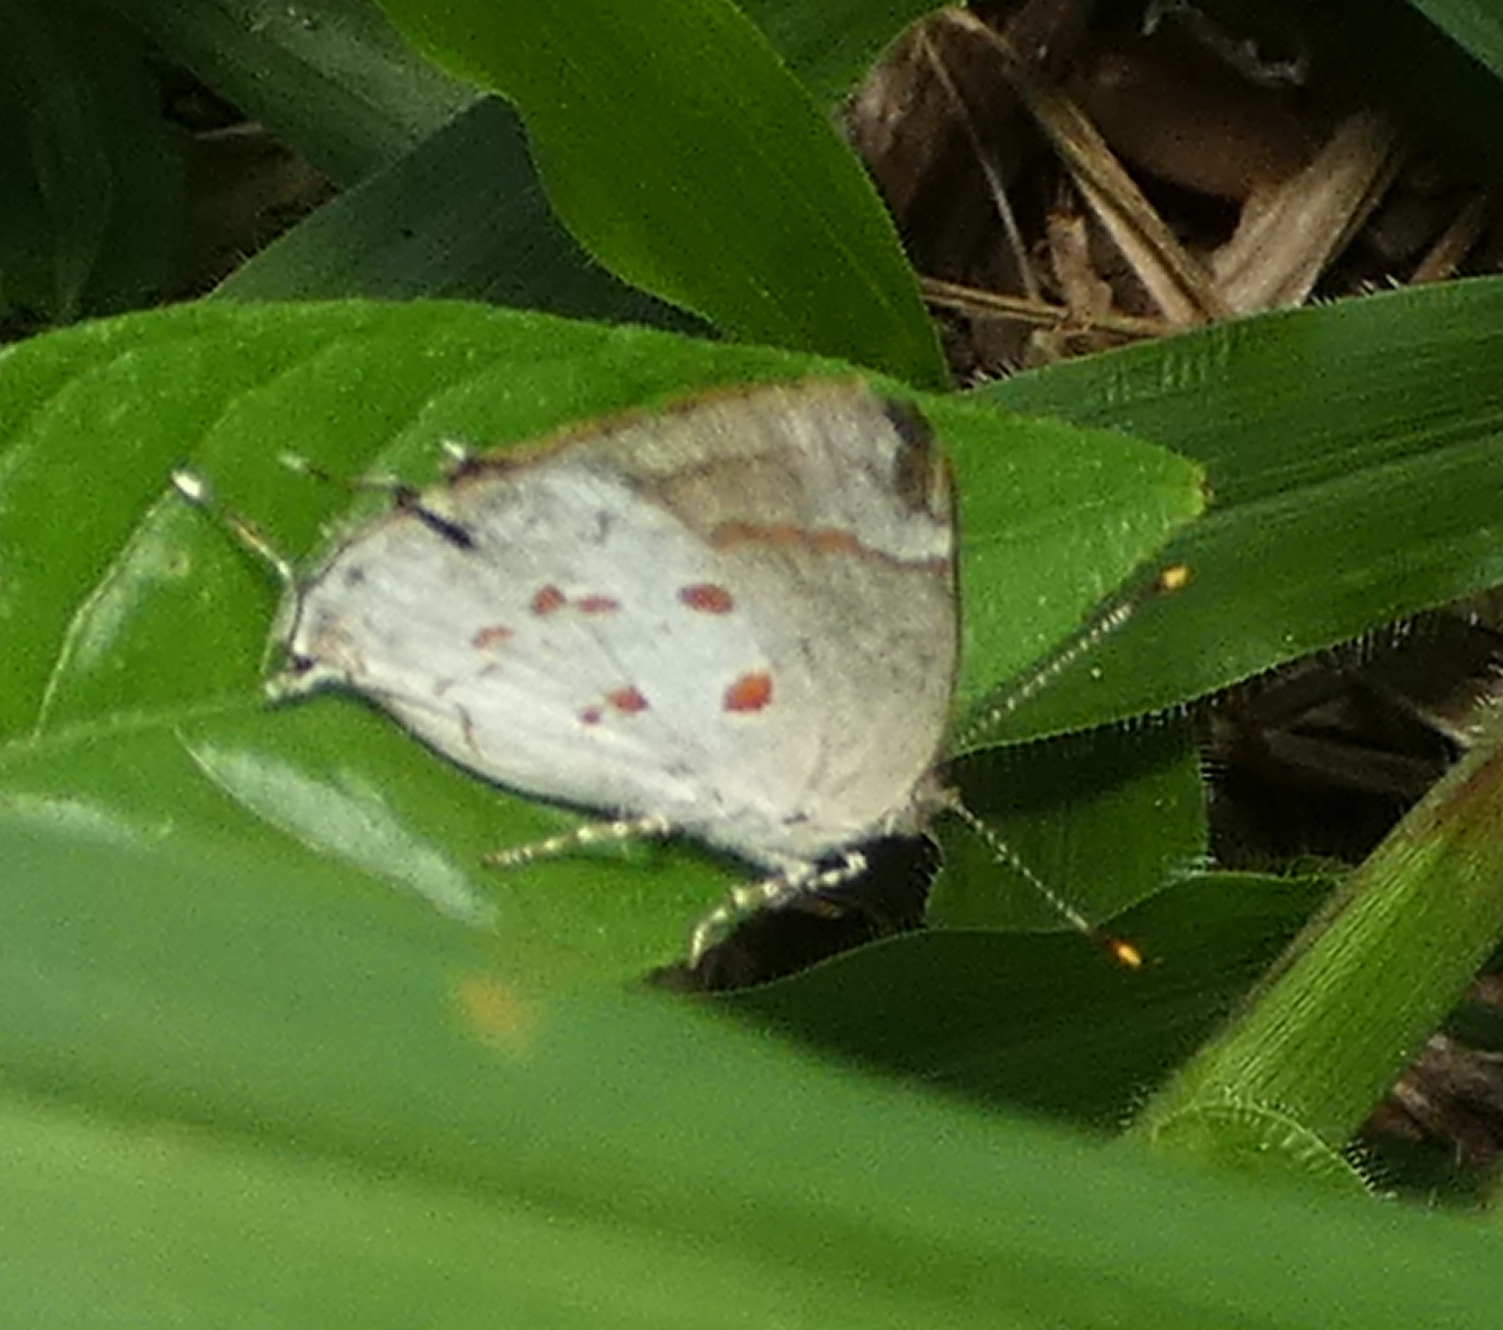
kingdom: Animalia
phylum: Arthropoda
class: Insecta
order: Lepidoptera
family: Lycaenidae
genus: Tmolus
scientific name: Tmolus echion
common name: Red-spotted hairstreak
